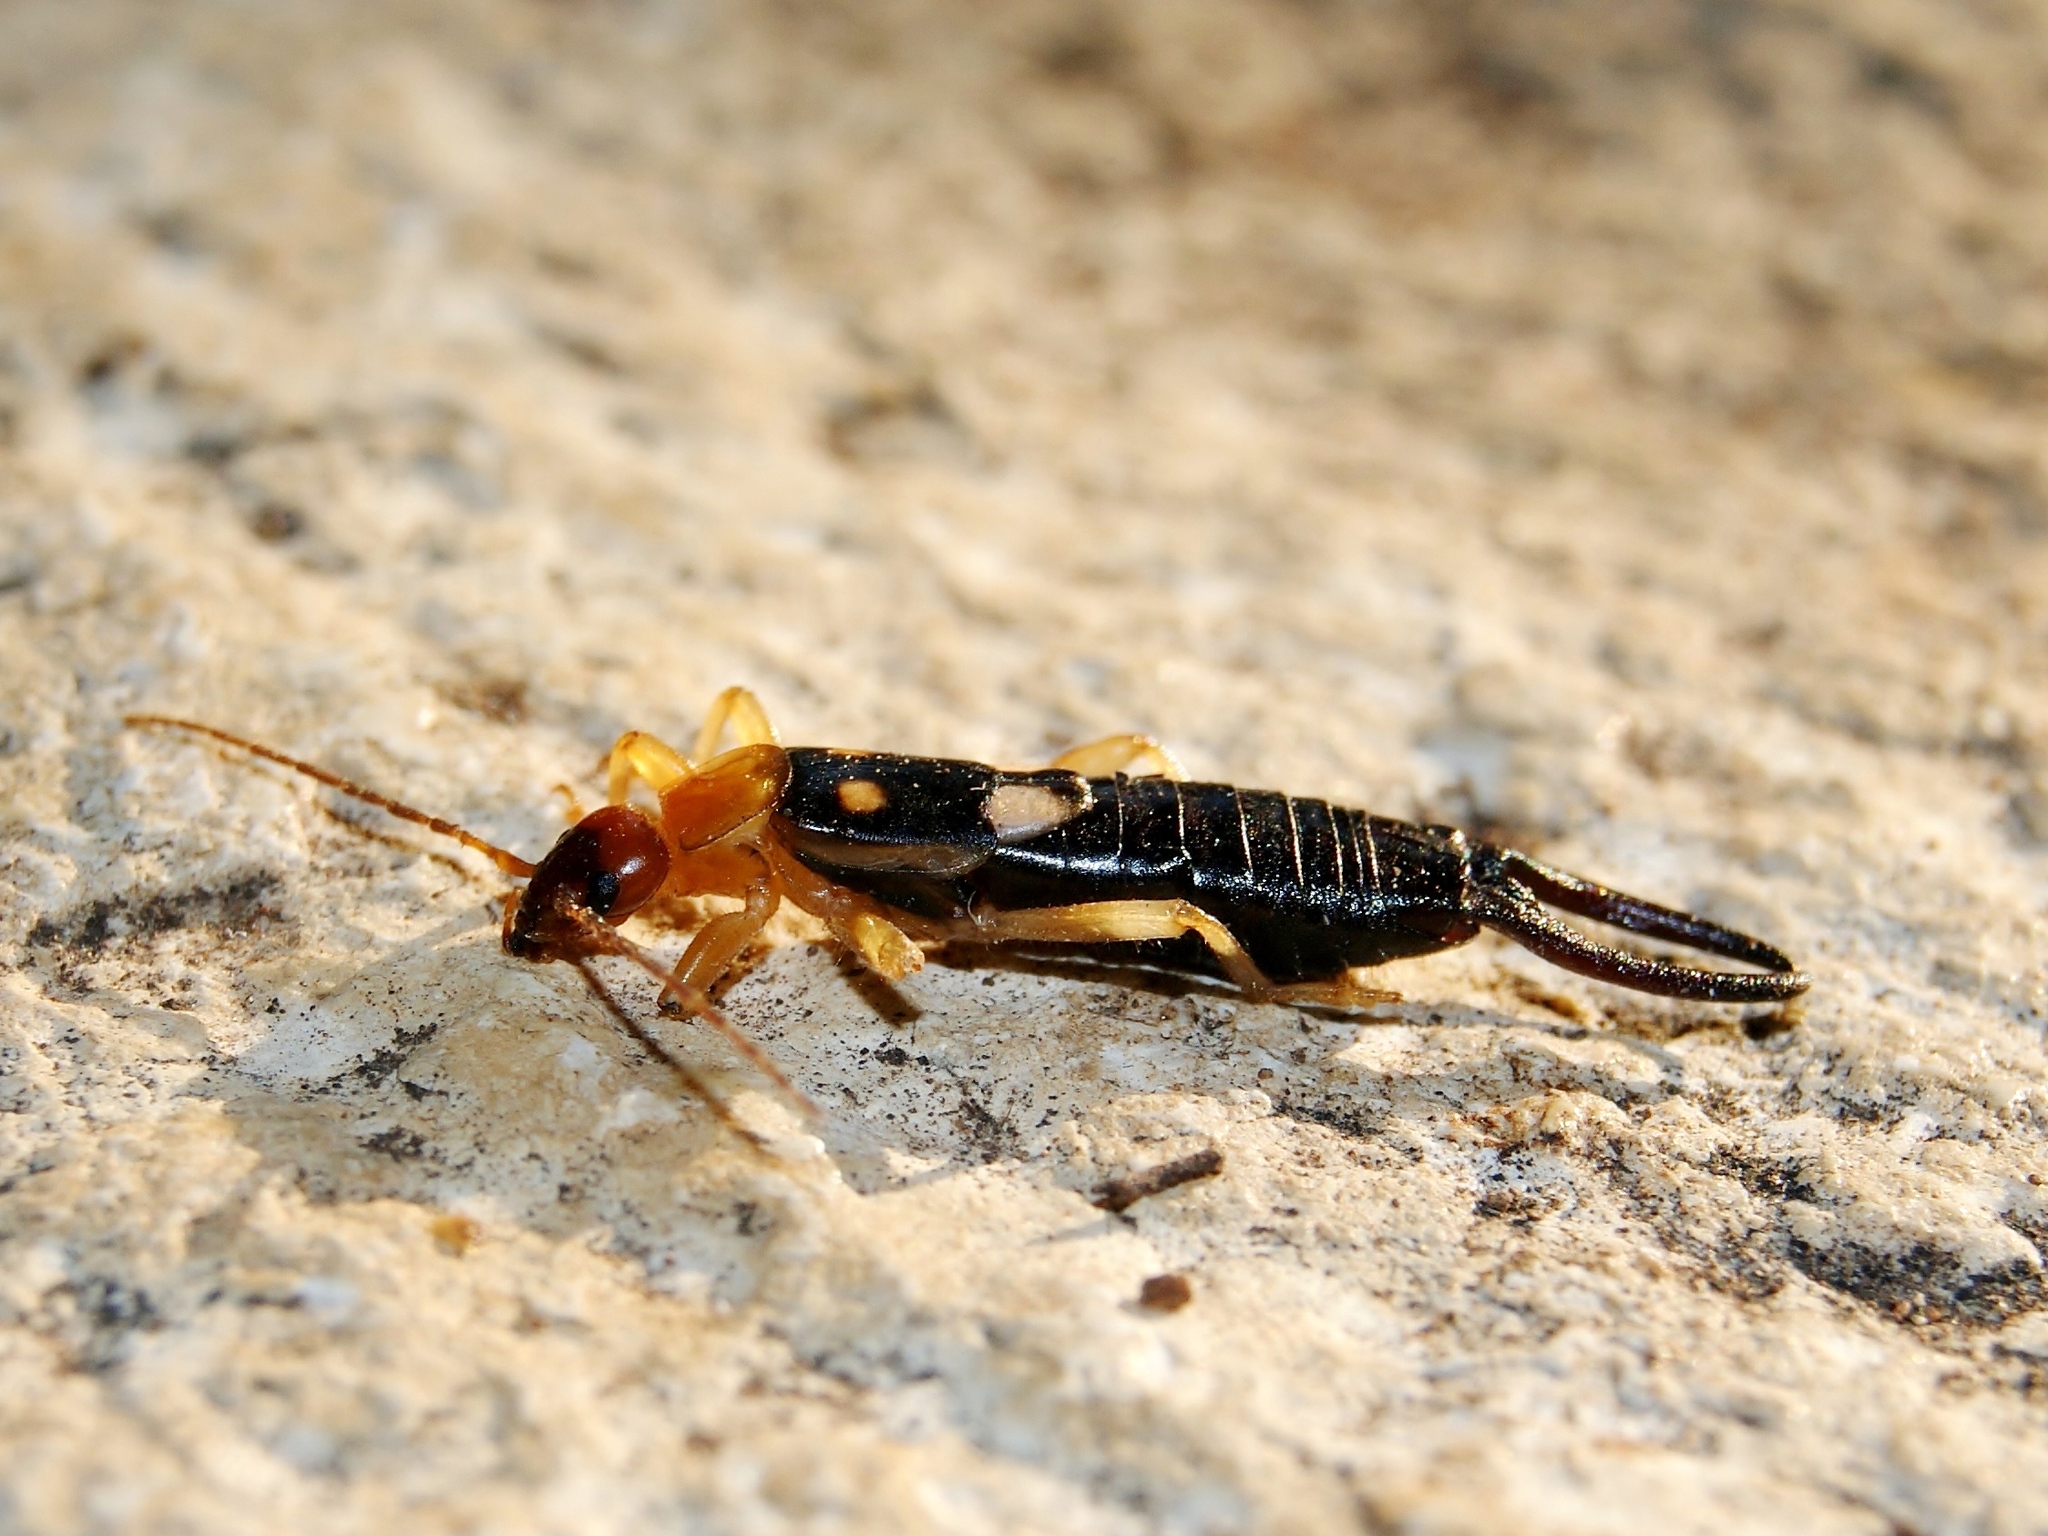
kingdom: Animalia
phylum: Arthropoda
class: Insecta
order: Dermaptera
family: Forficulidae
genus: Forficula
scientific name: Forficula smyrnensis
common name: Smyrna earwig
